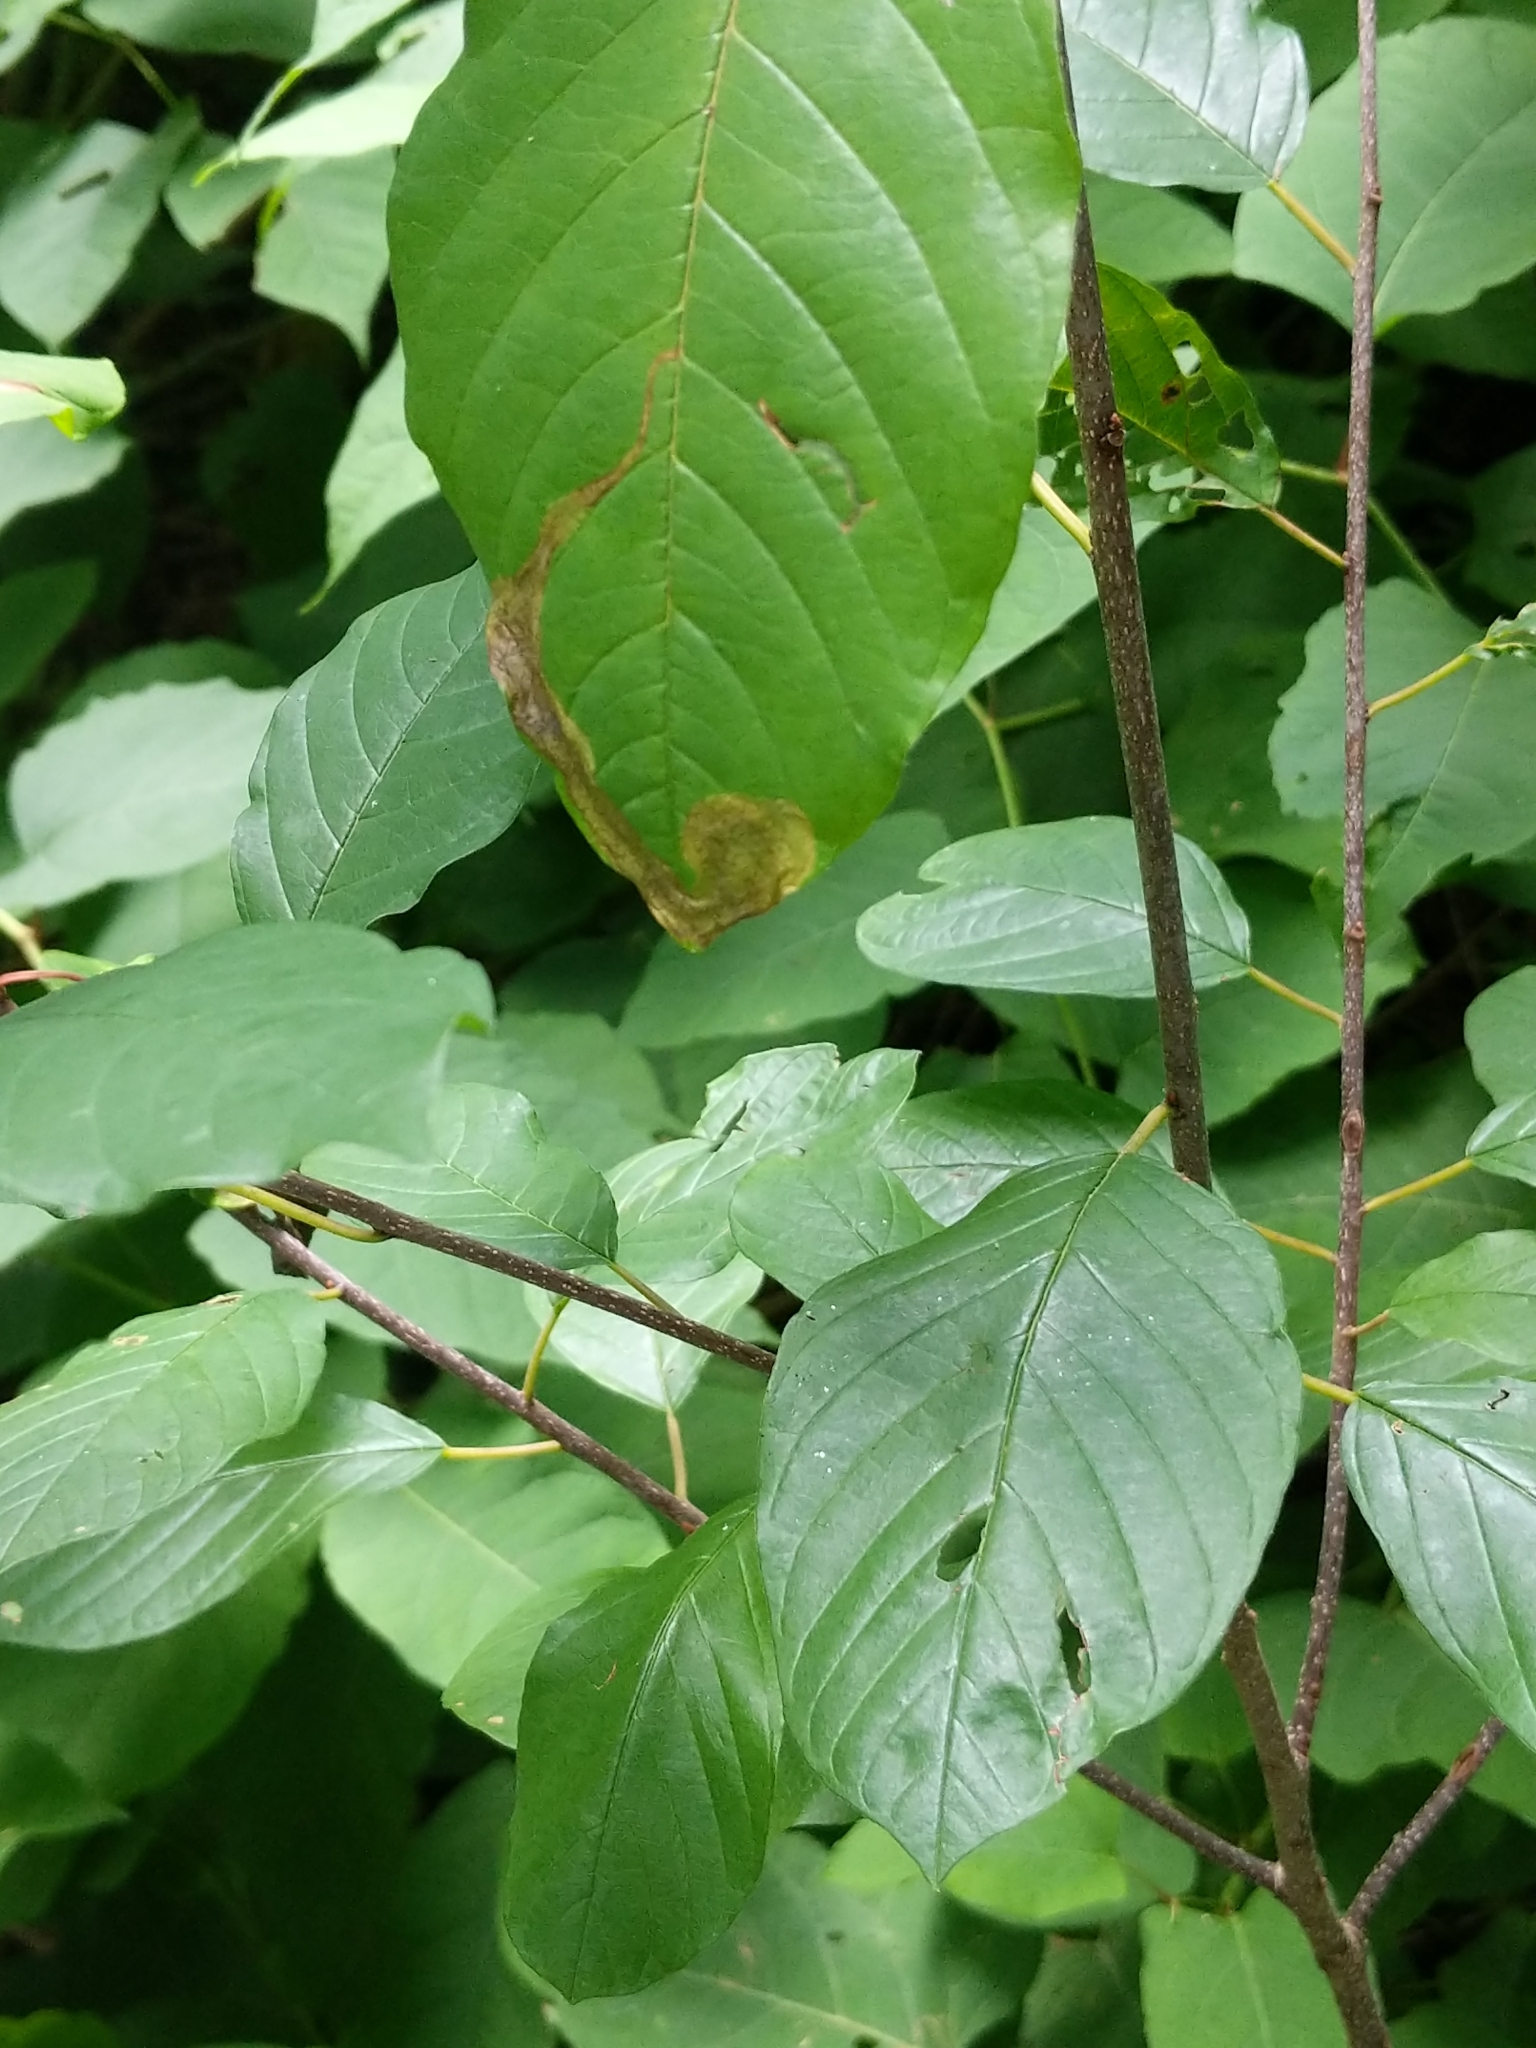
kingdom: Plantae
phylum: Tracheophyta
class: Magnoliopsida
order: Rosales
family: Rhamnaceae
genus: Frangula
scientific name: Frangula alnus
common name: Alder buckthorn
